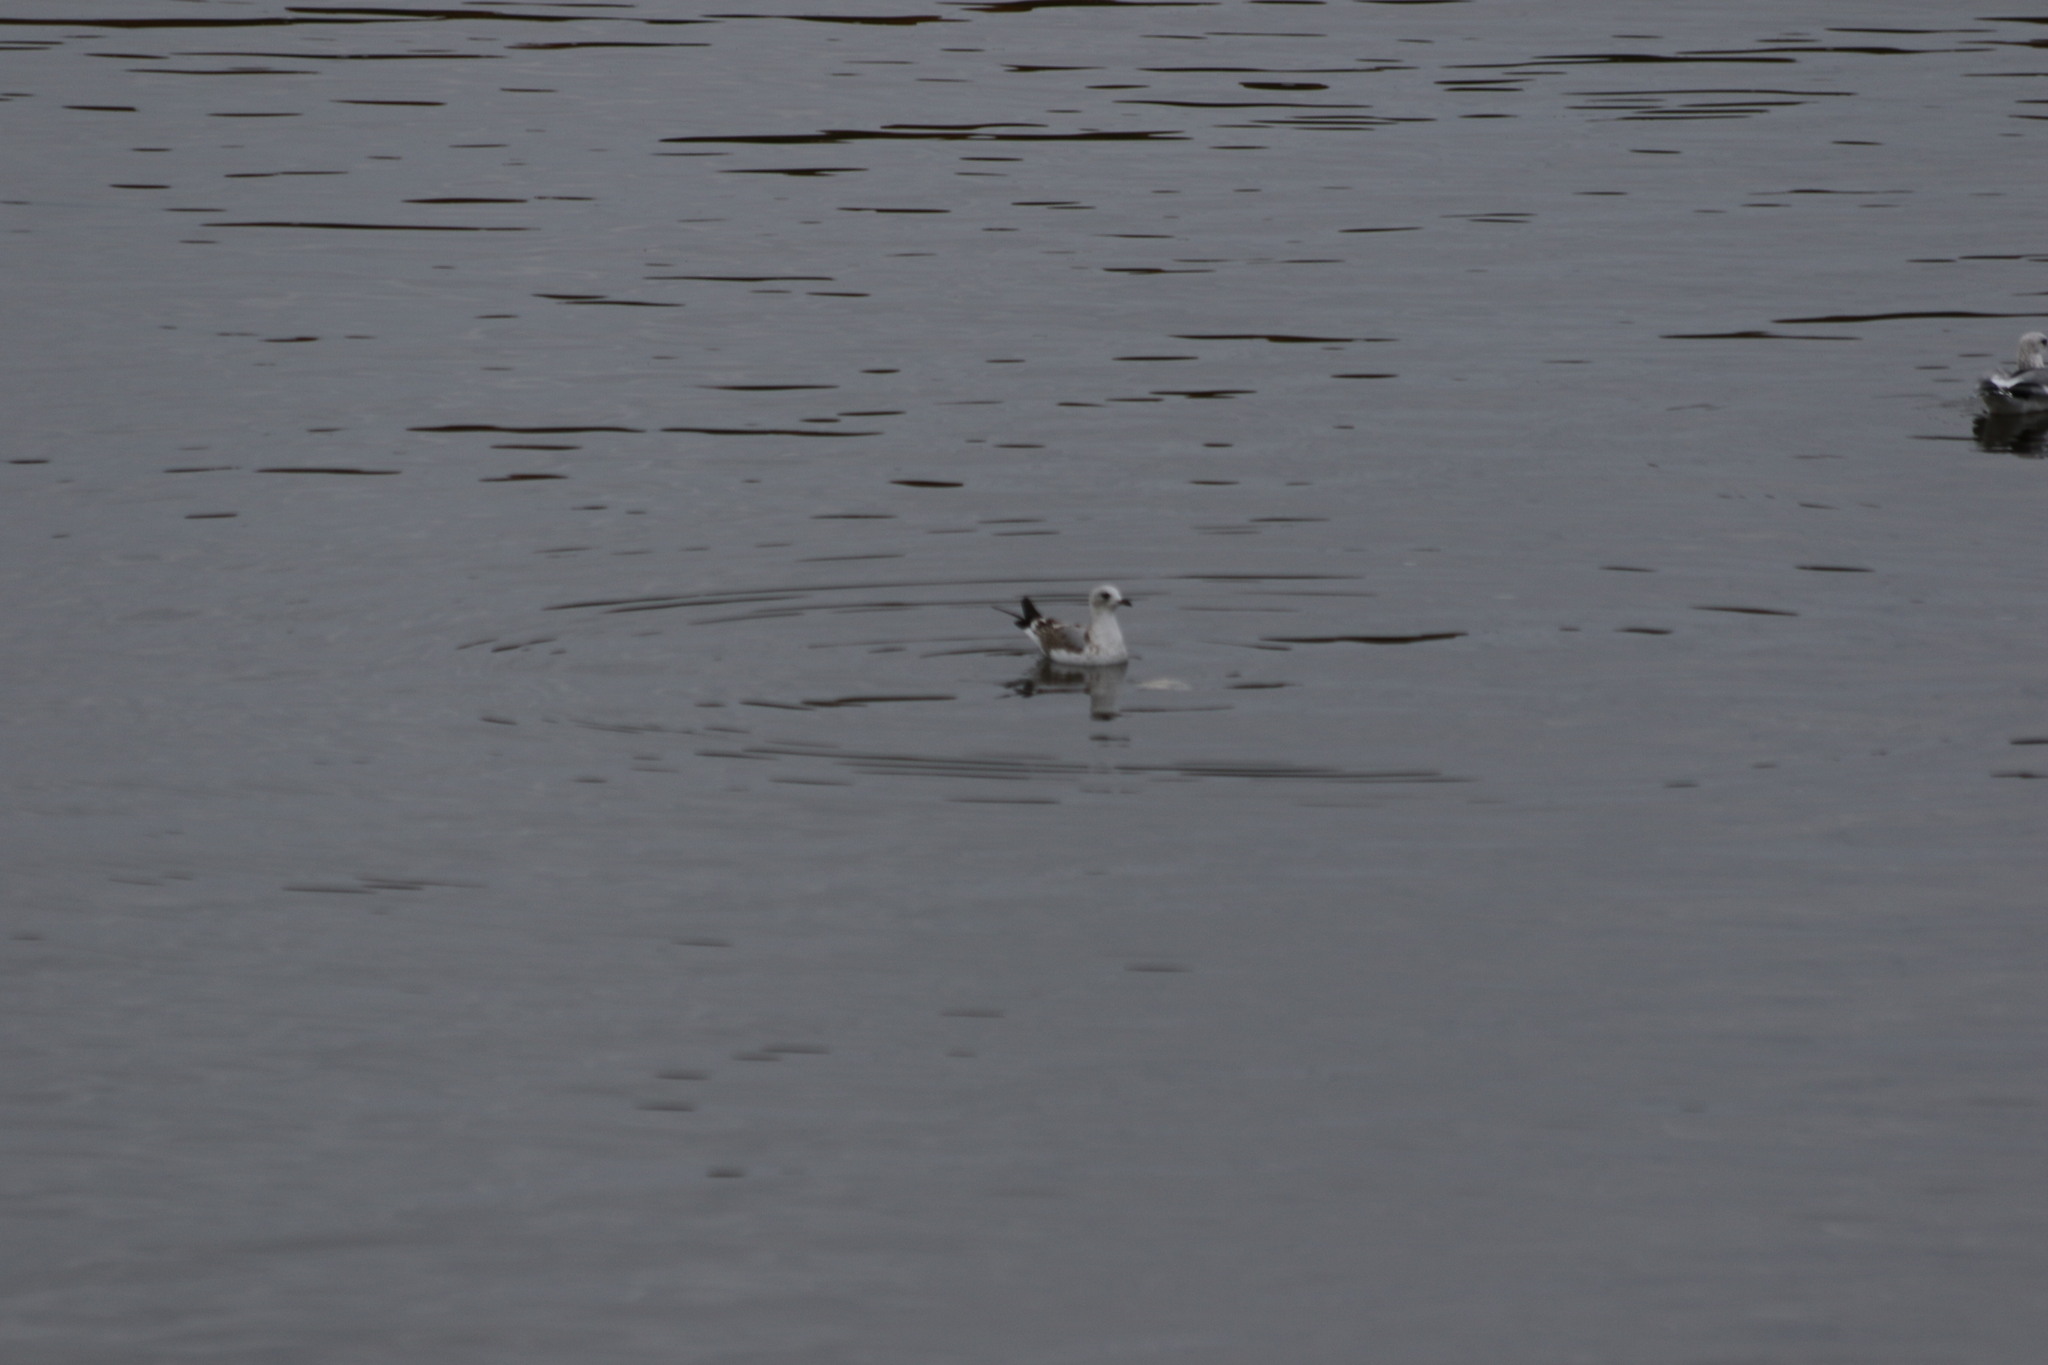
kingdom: Animalia
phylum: Chordata
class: Aves
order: Charadriiformes
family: Laridae
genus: Larus
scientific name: Larus canus
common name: Mew gull
